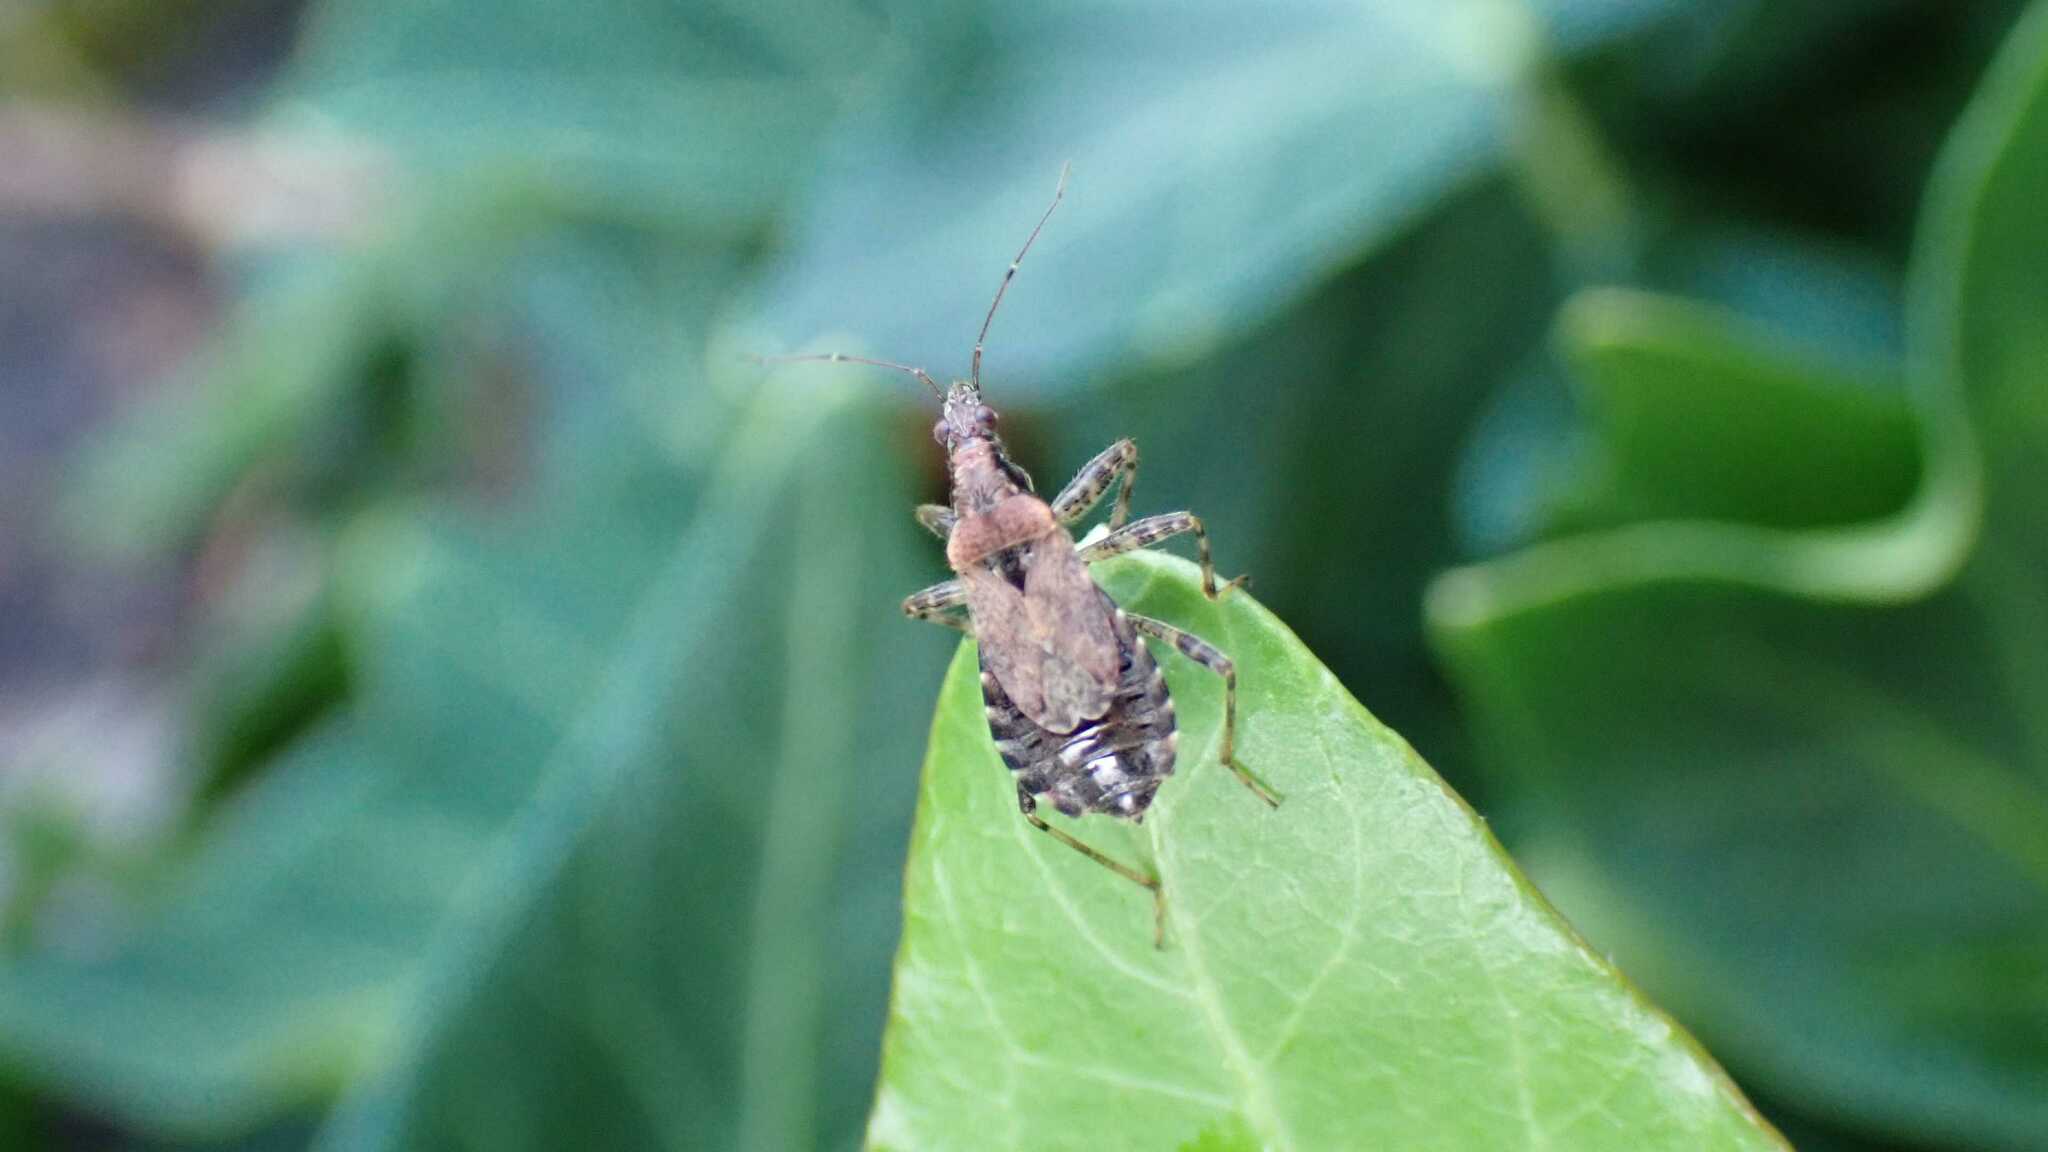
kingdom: Animalia
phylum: Arthropoda
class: Insecta
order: Hemiptera
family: Nabidae
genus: Himacerus
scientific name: Himacerus mirmicoides
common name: Ant damsel bug
